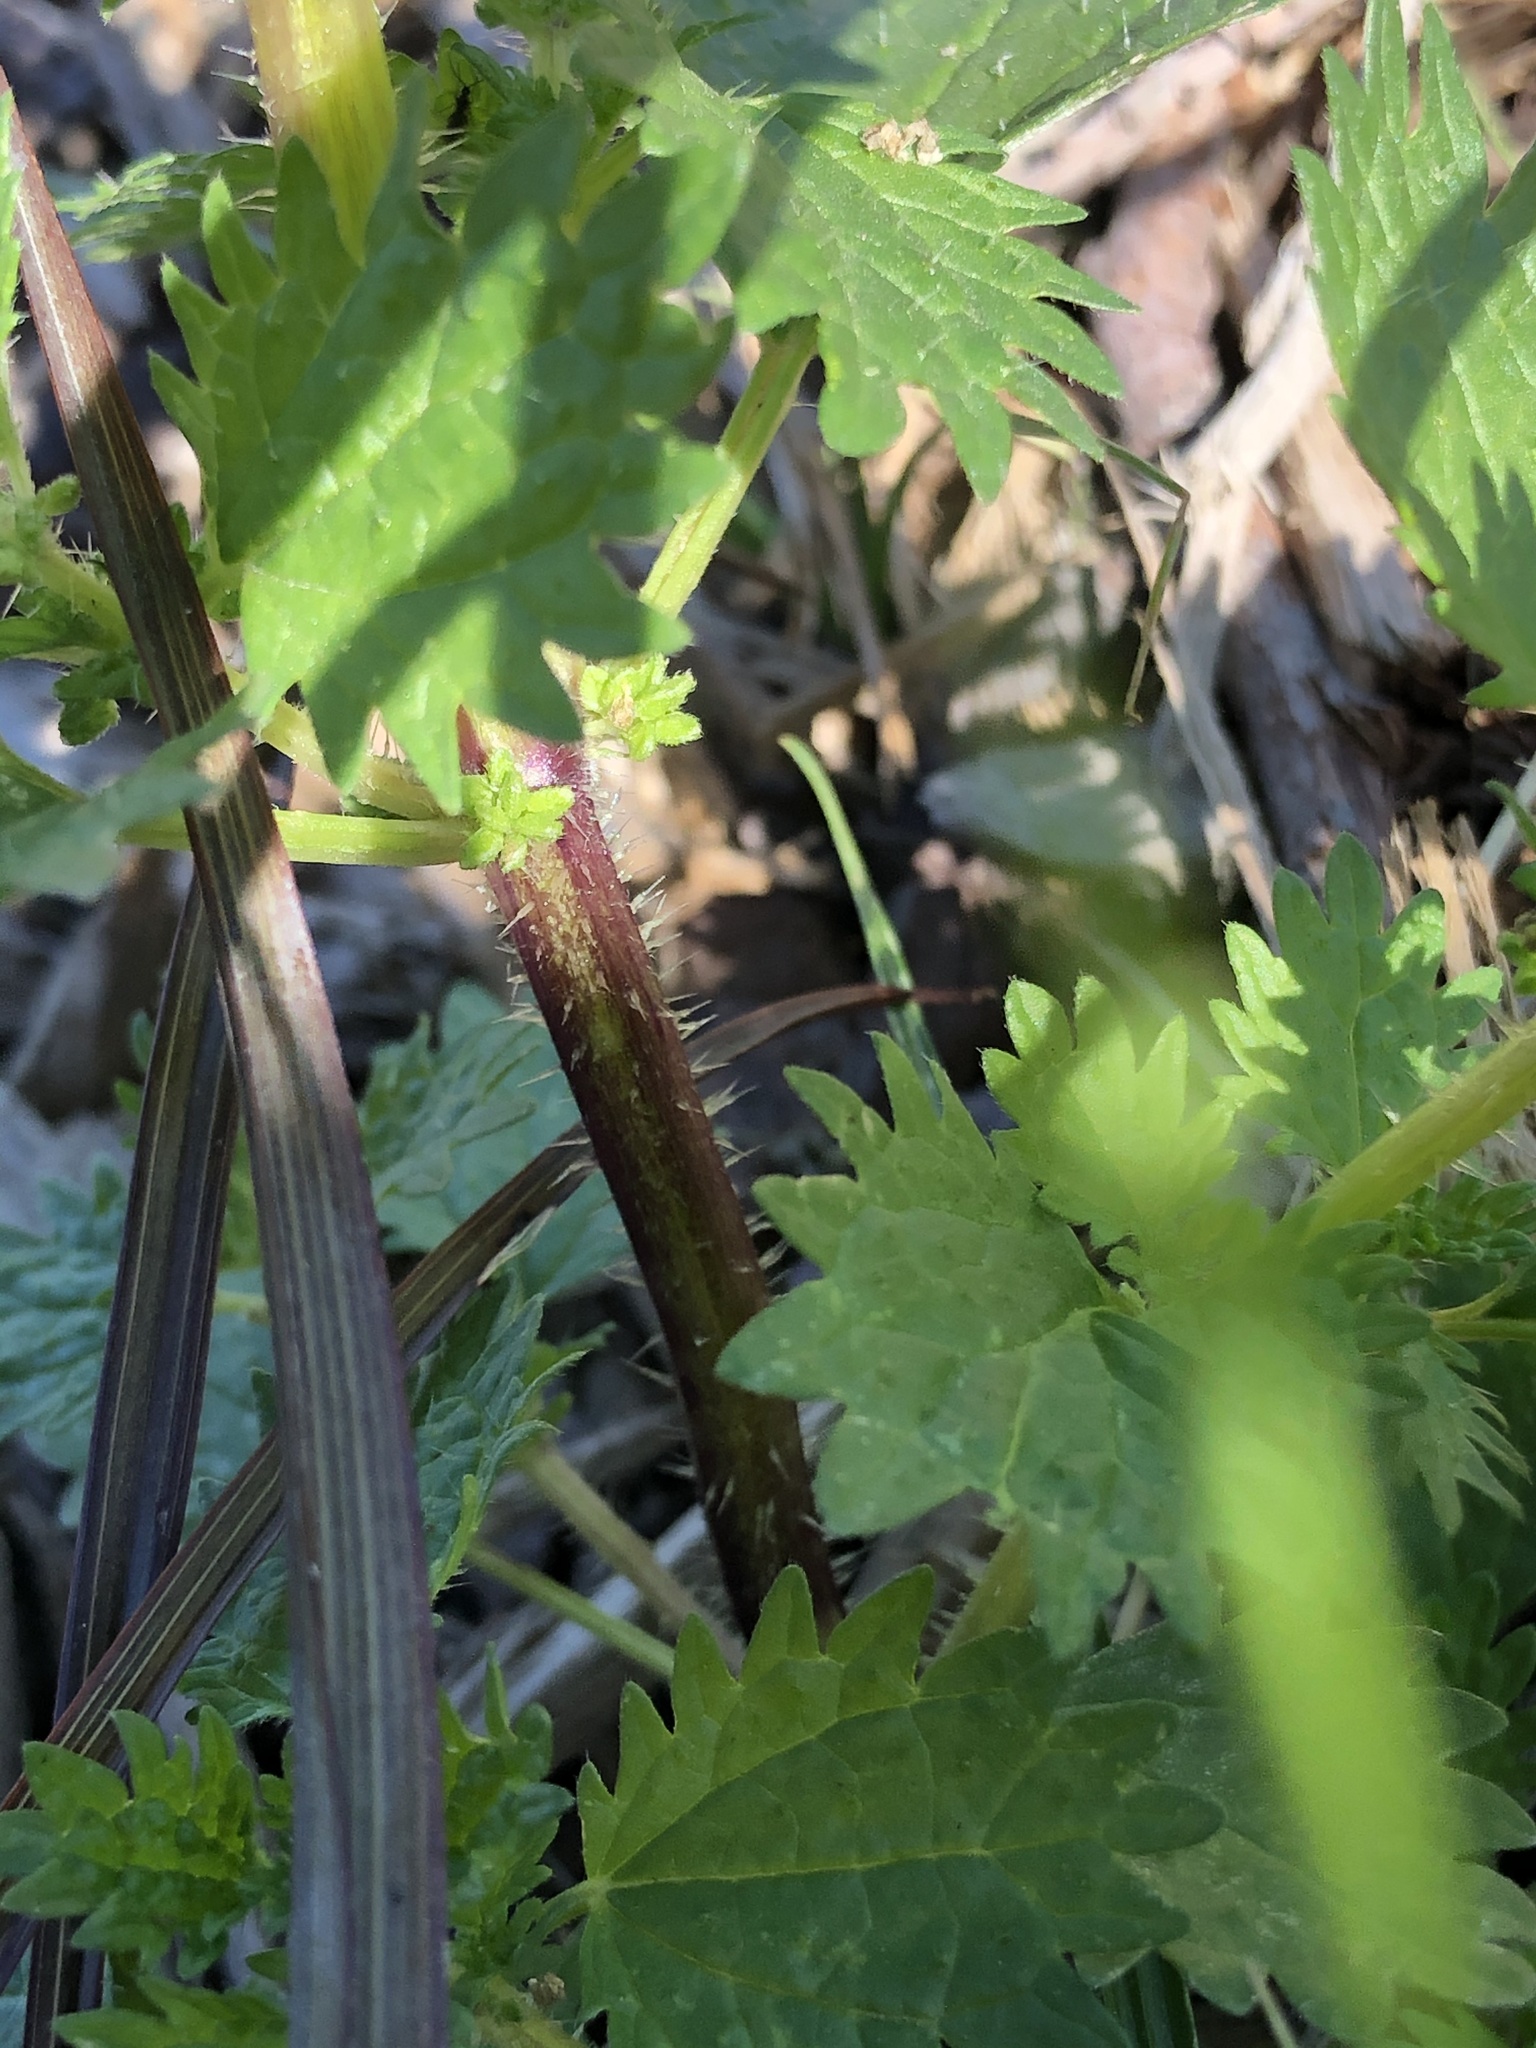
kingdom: Plantae
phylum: Tracheophyta
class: Magnoliopsida
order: Rosales
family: Urticaceae
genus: Urtica
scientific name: Urtica urens
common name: Dwarf nettle
